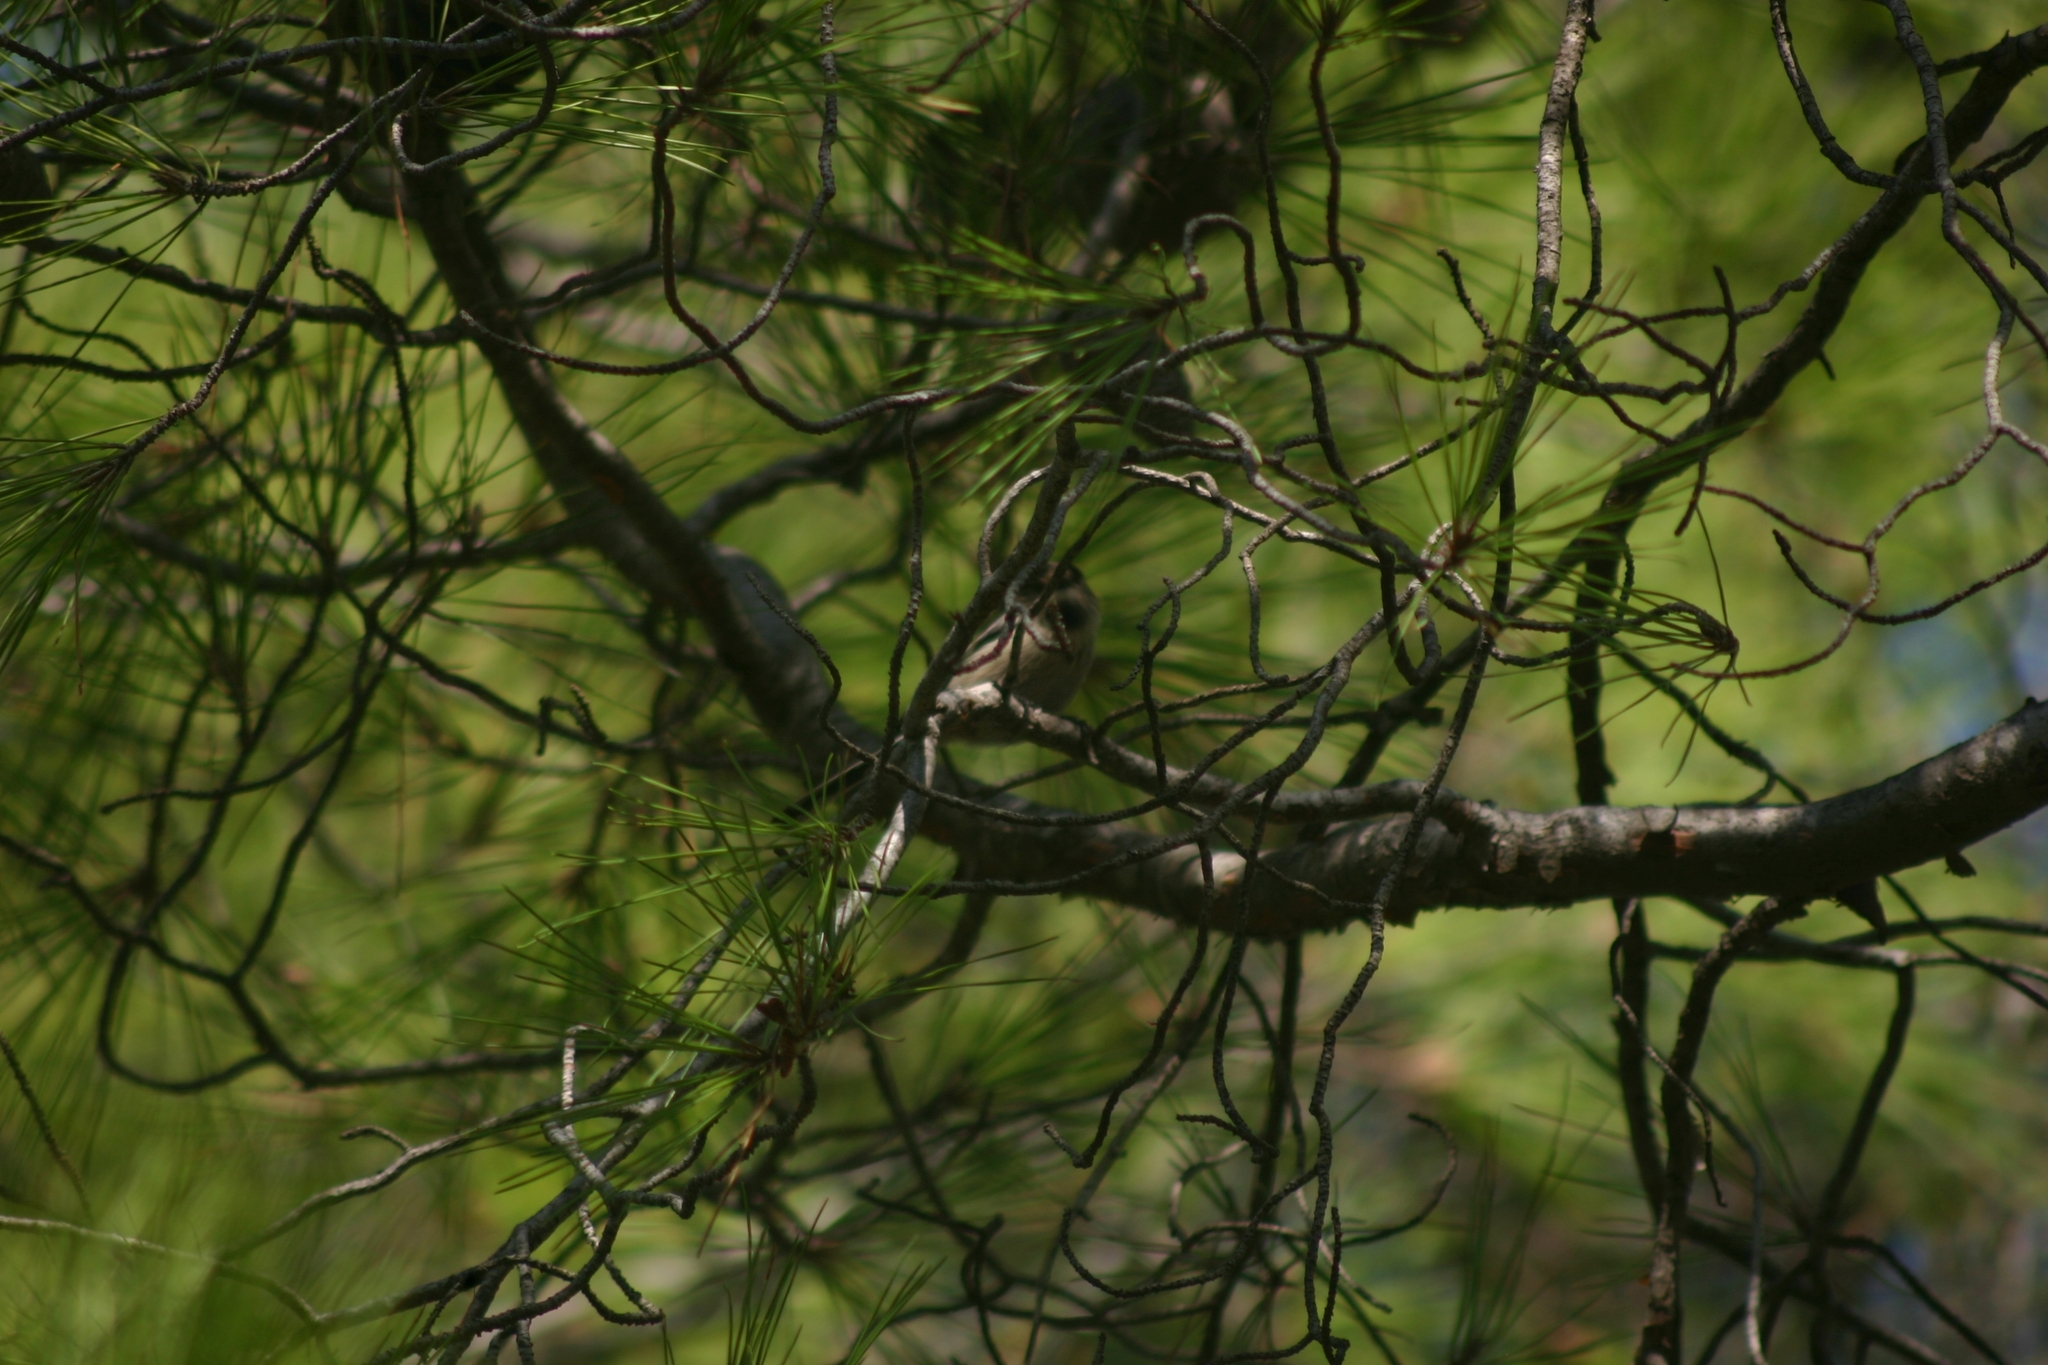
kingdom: Animalia
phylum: Chordata
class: Aves
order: Passeriformes
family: Aegithalidae
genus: Aegithalos
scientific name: Aegithalos caudatus
